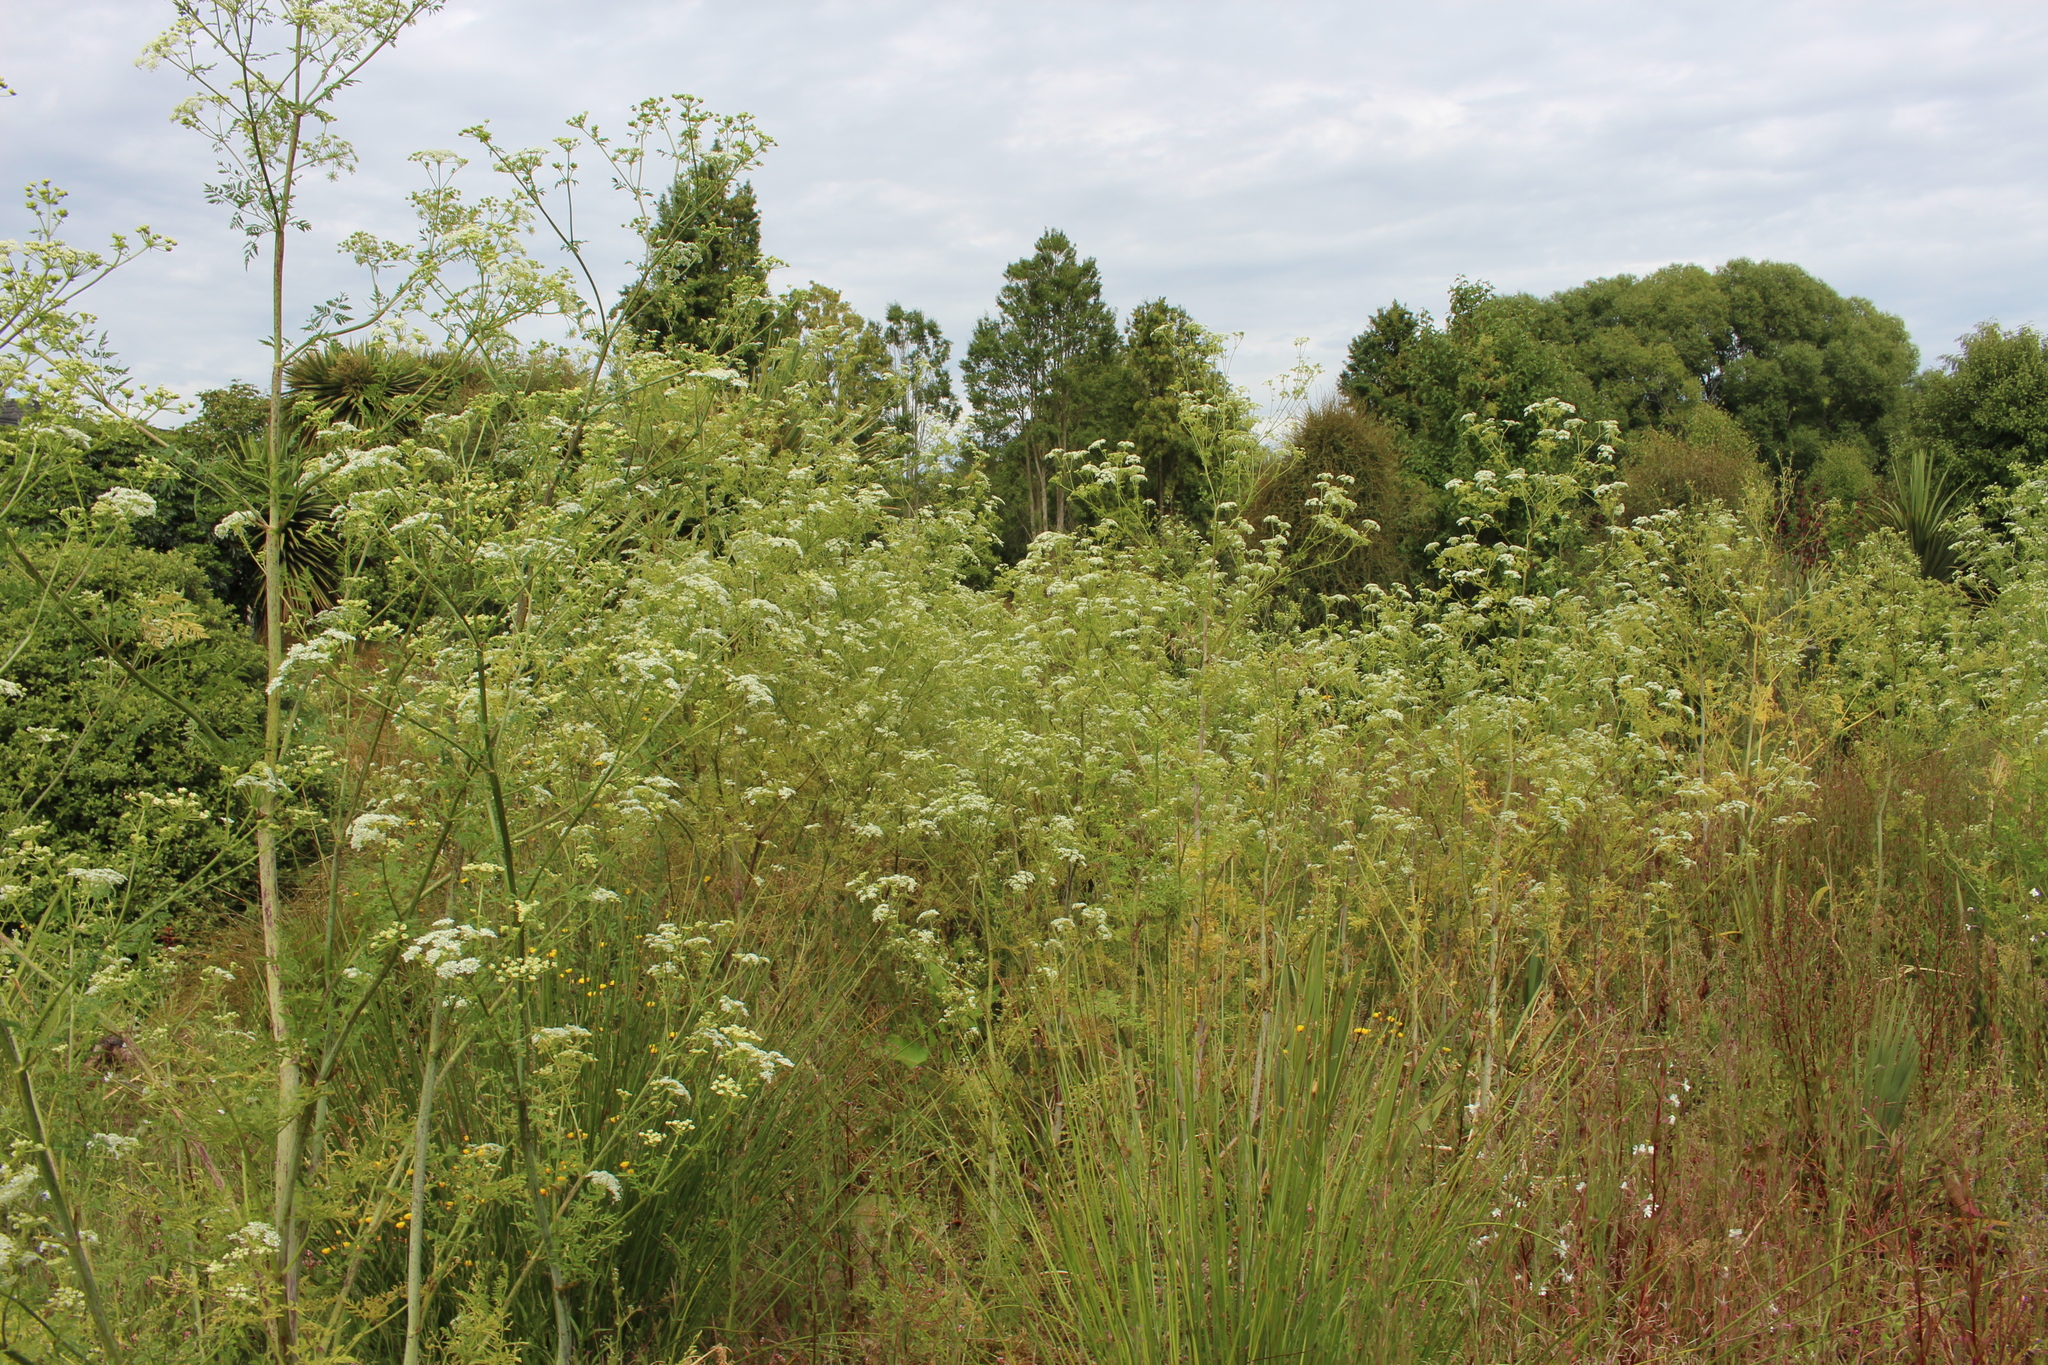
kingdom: Plantae
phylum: Tracheophyta
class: Magnoliopsida
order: Apiales
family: Apiaceae
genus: Conium
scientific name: Conium maculatum
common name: Hemlock
